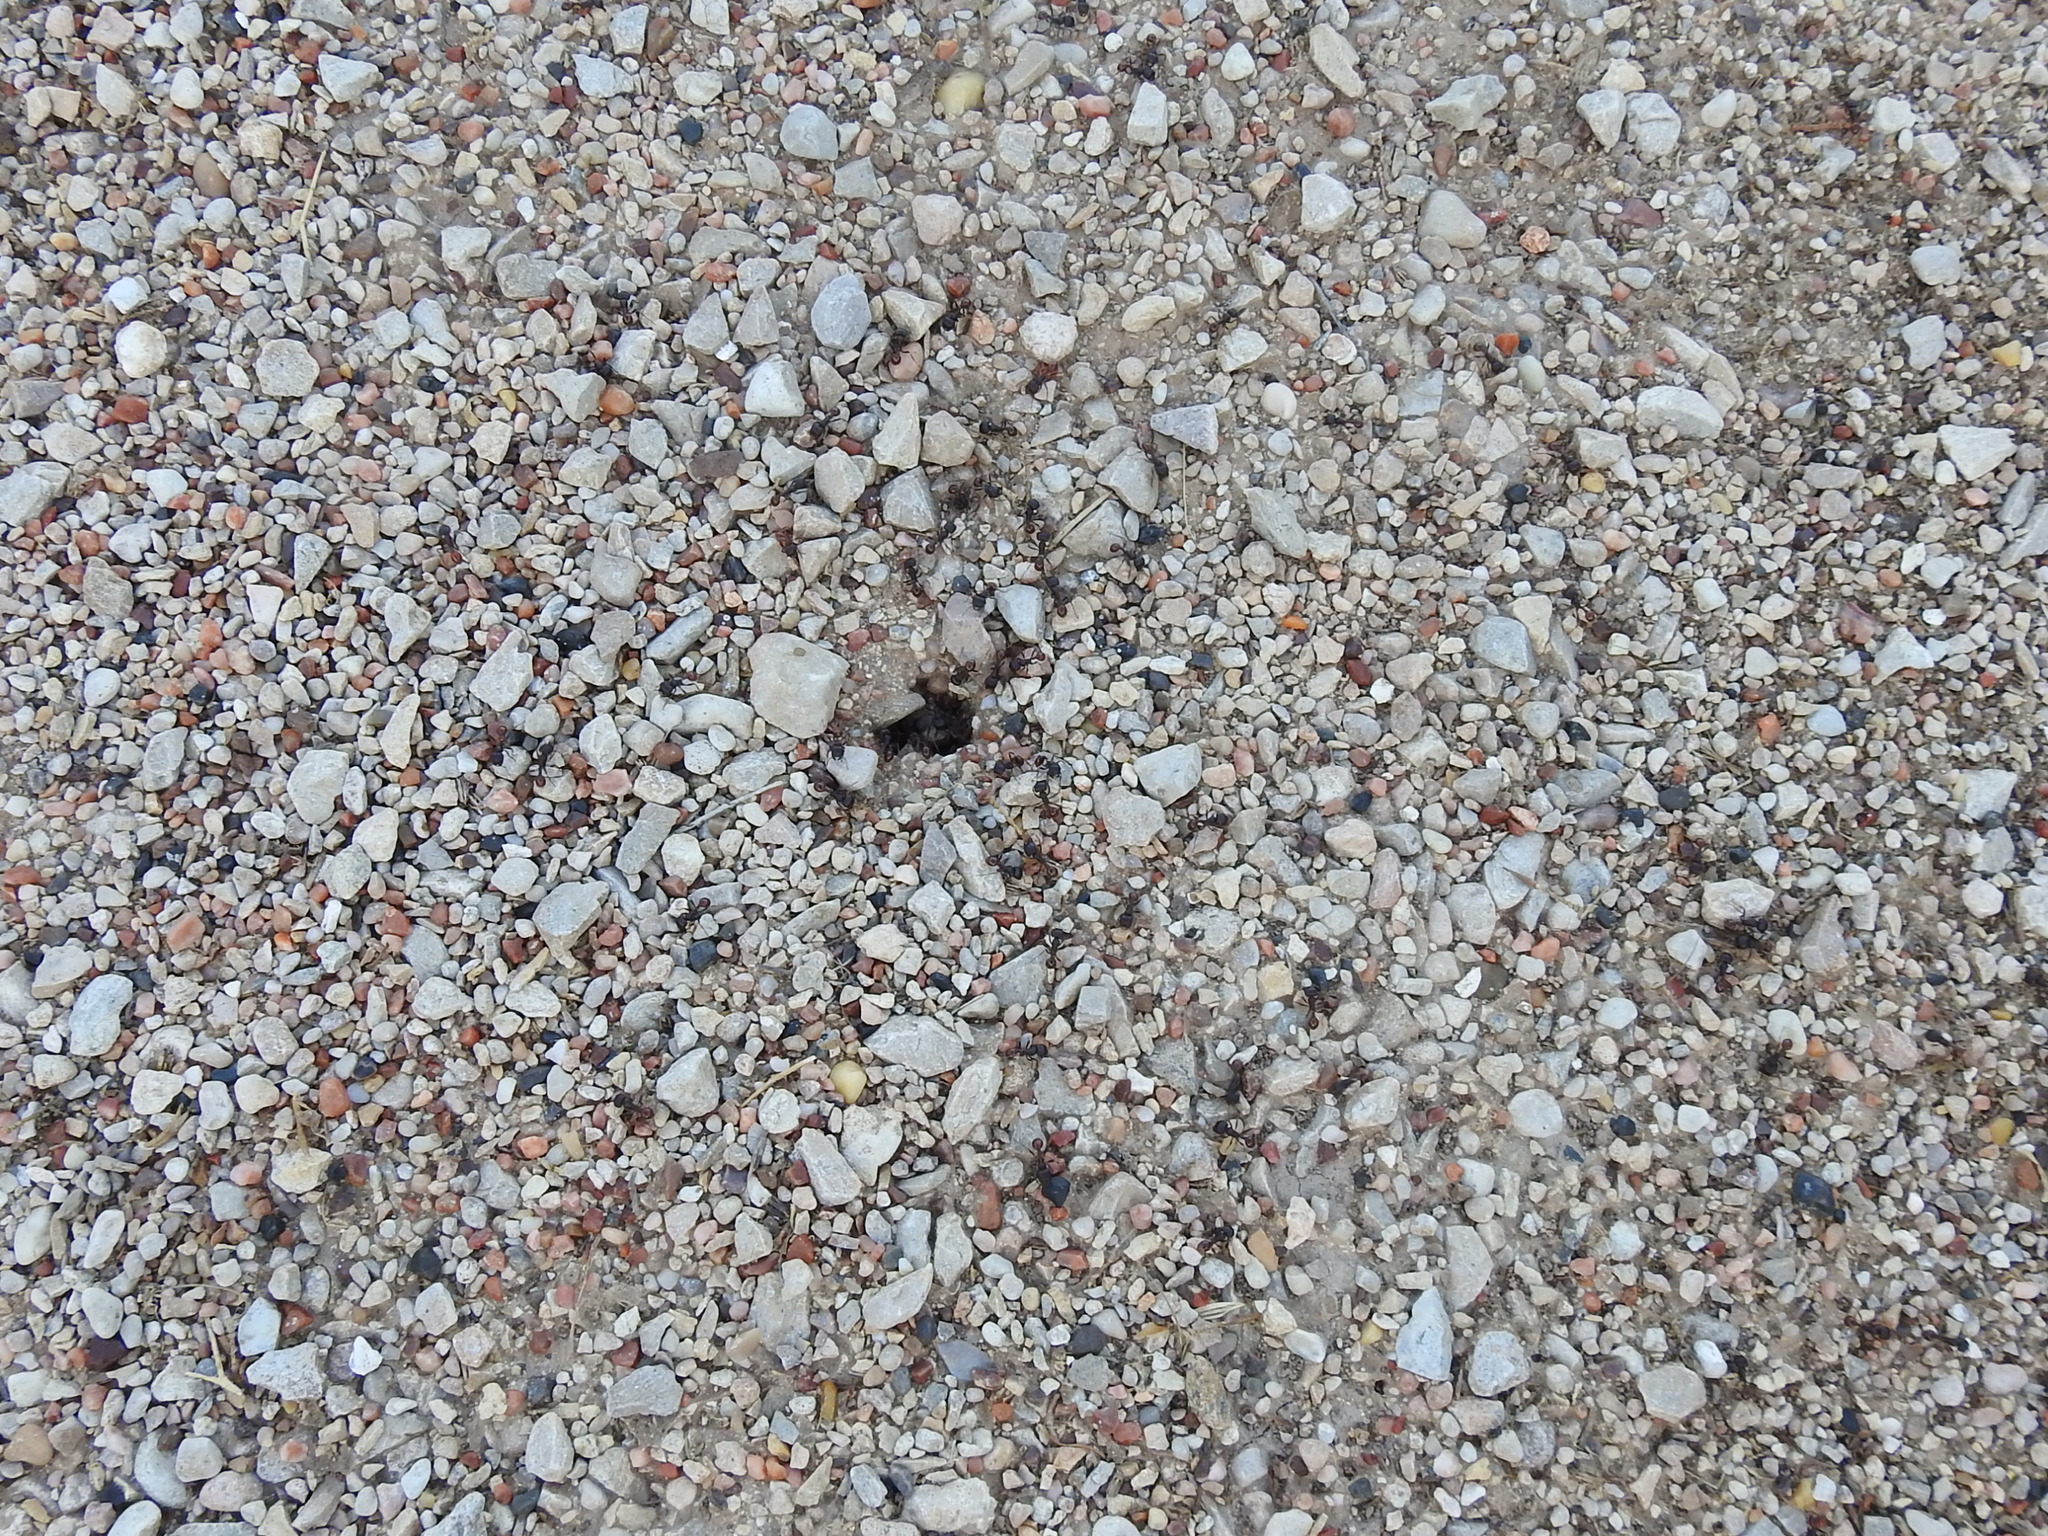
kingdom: Animalia
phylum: Arthropoda
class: Insecta
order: Hymenoptera
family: Formicidae
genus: Pogonomyrmex
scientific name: Pogonomyrmex rugosus
